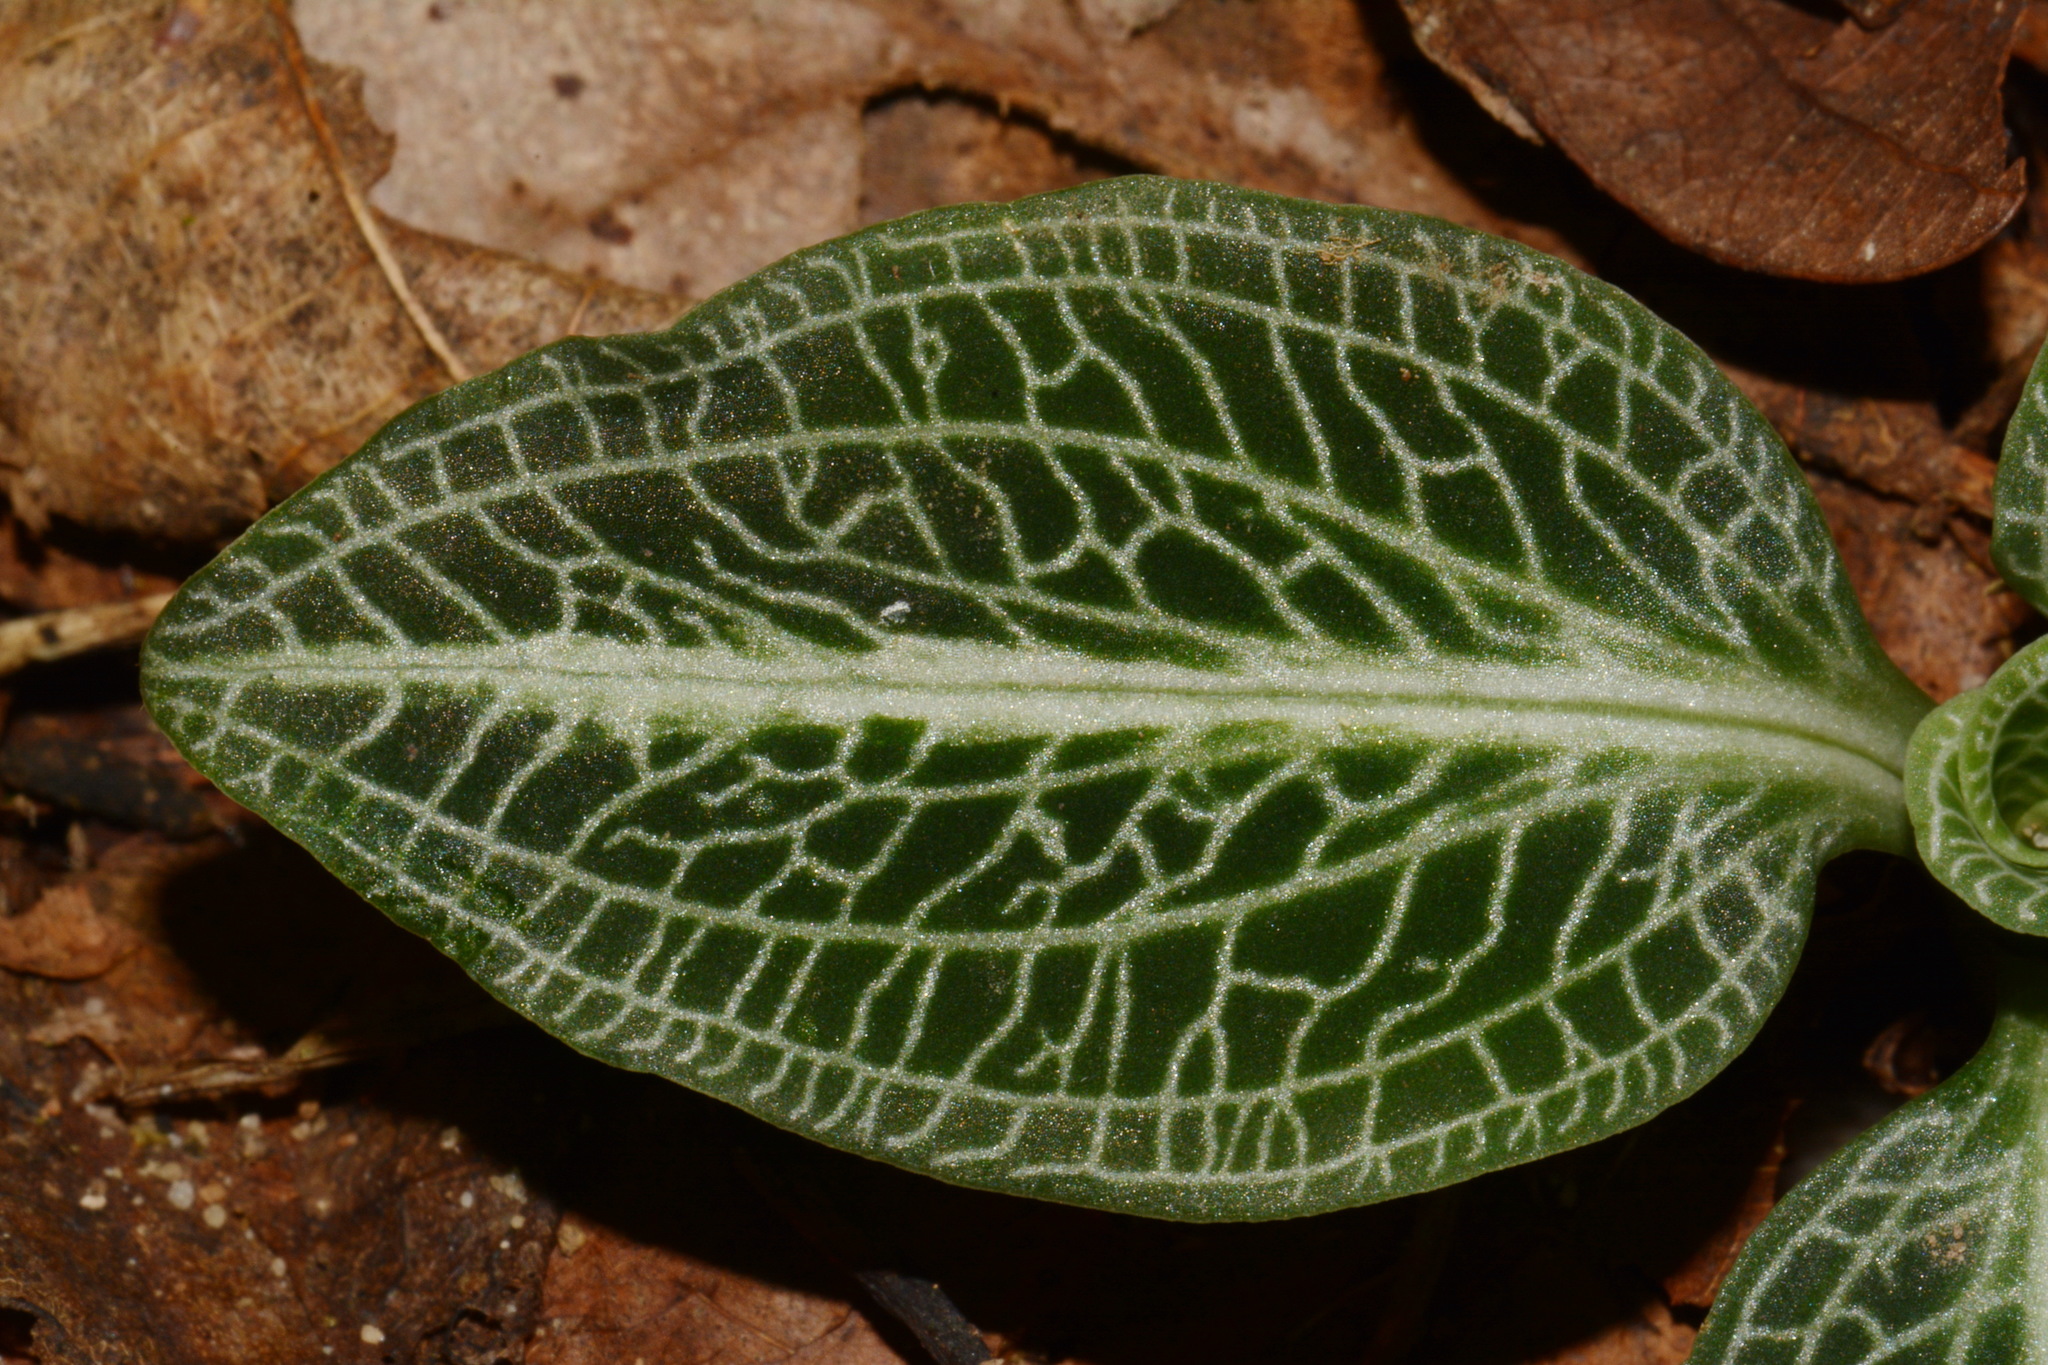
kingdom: Plantae
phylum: Tracheophyta
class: Liliopsida
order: Asparagales
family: Orchidaceae
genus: Goodyera
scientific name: Goodyera pubescens
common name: Downy rattlesnake-plantain
